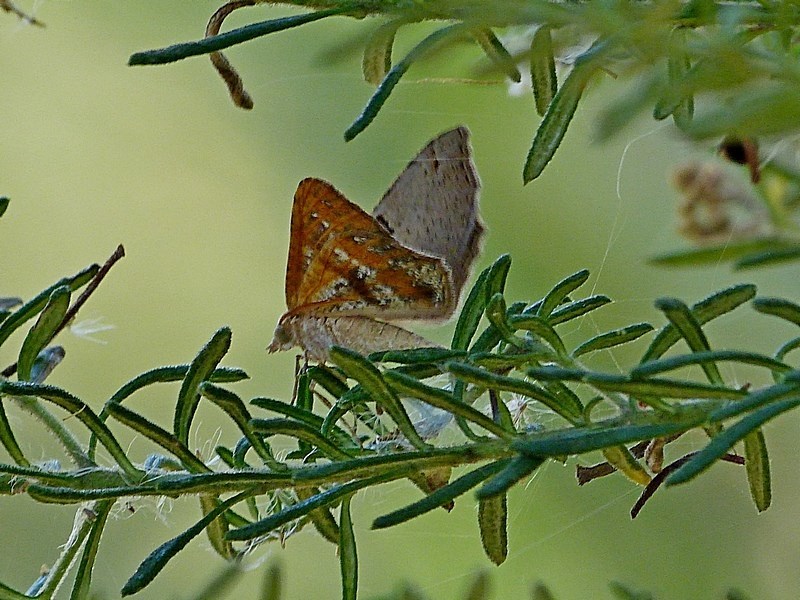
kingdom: Animalia
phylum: Arthropoda
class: Insecta
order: Lepidoptera
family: Geometridae
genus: Dissomorphia
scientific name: Dissomorphia australiaria
